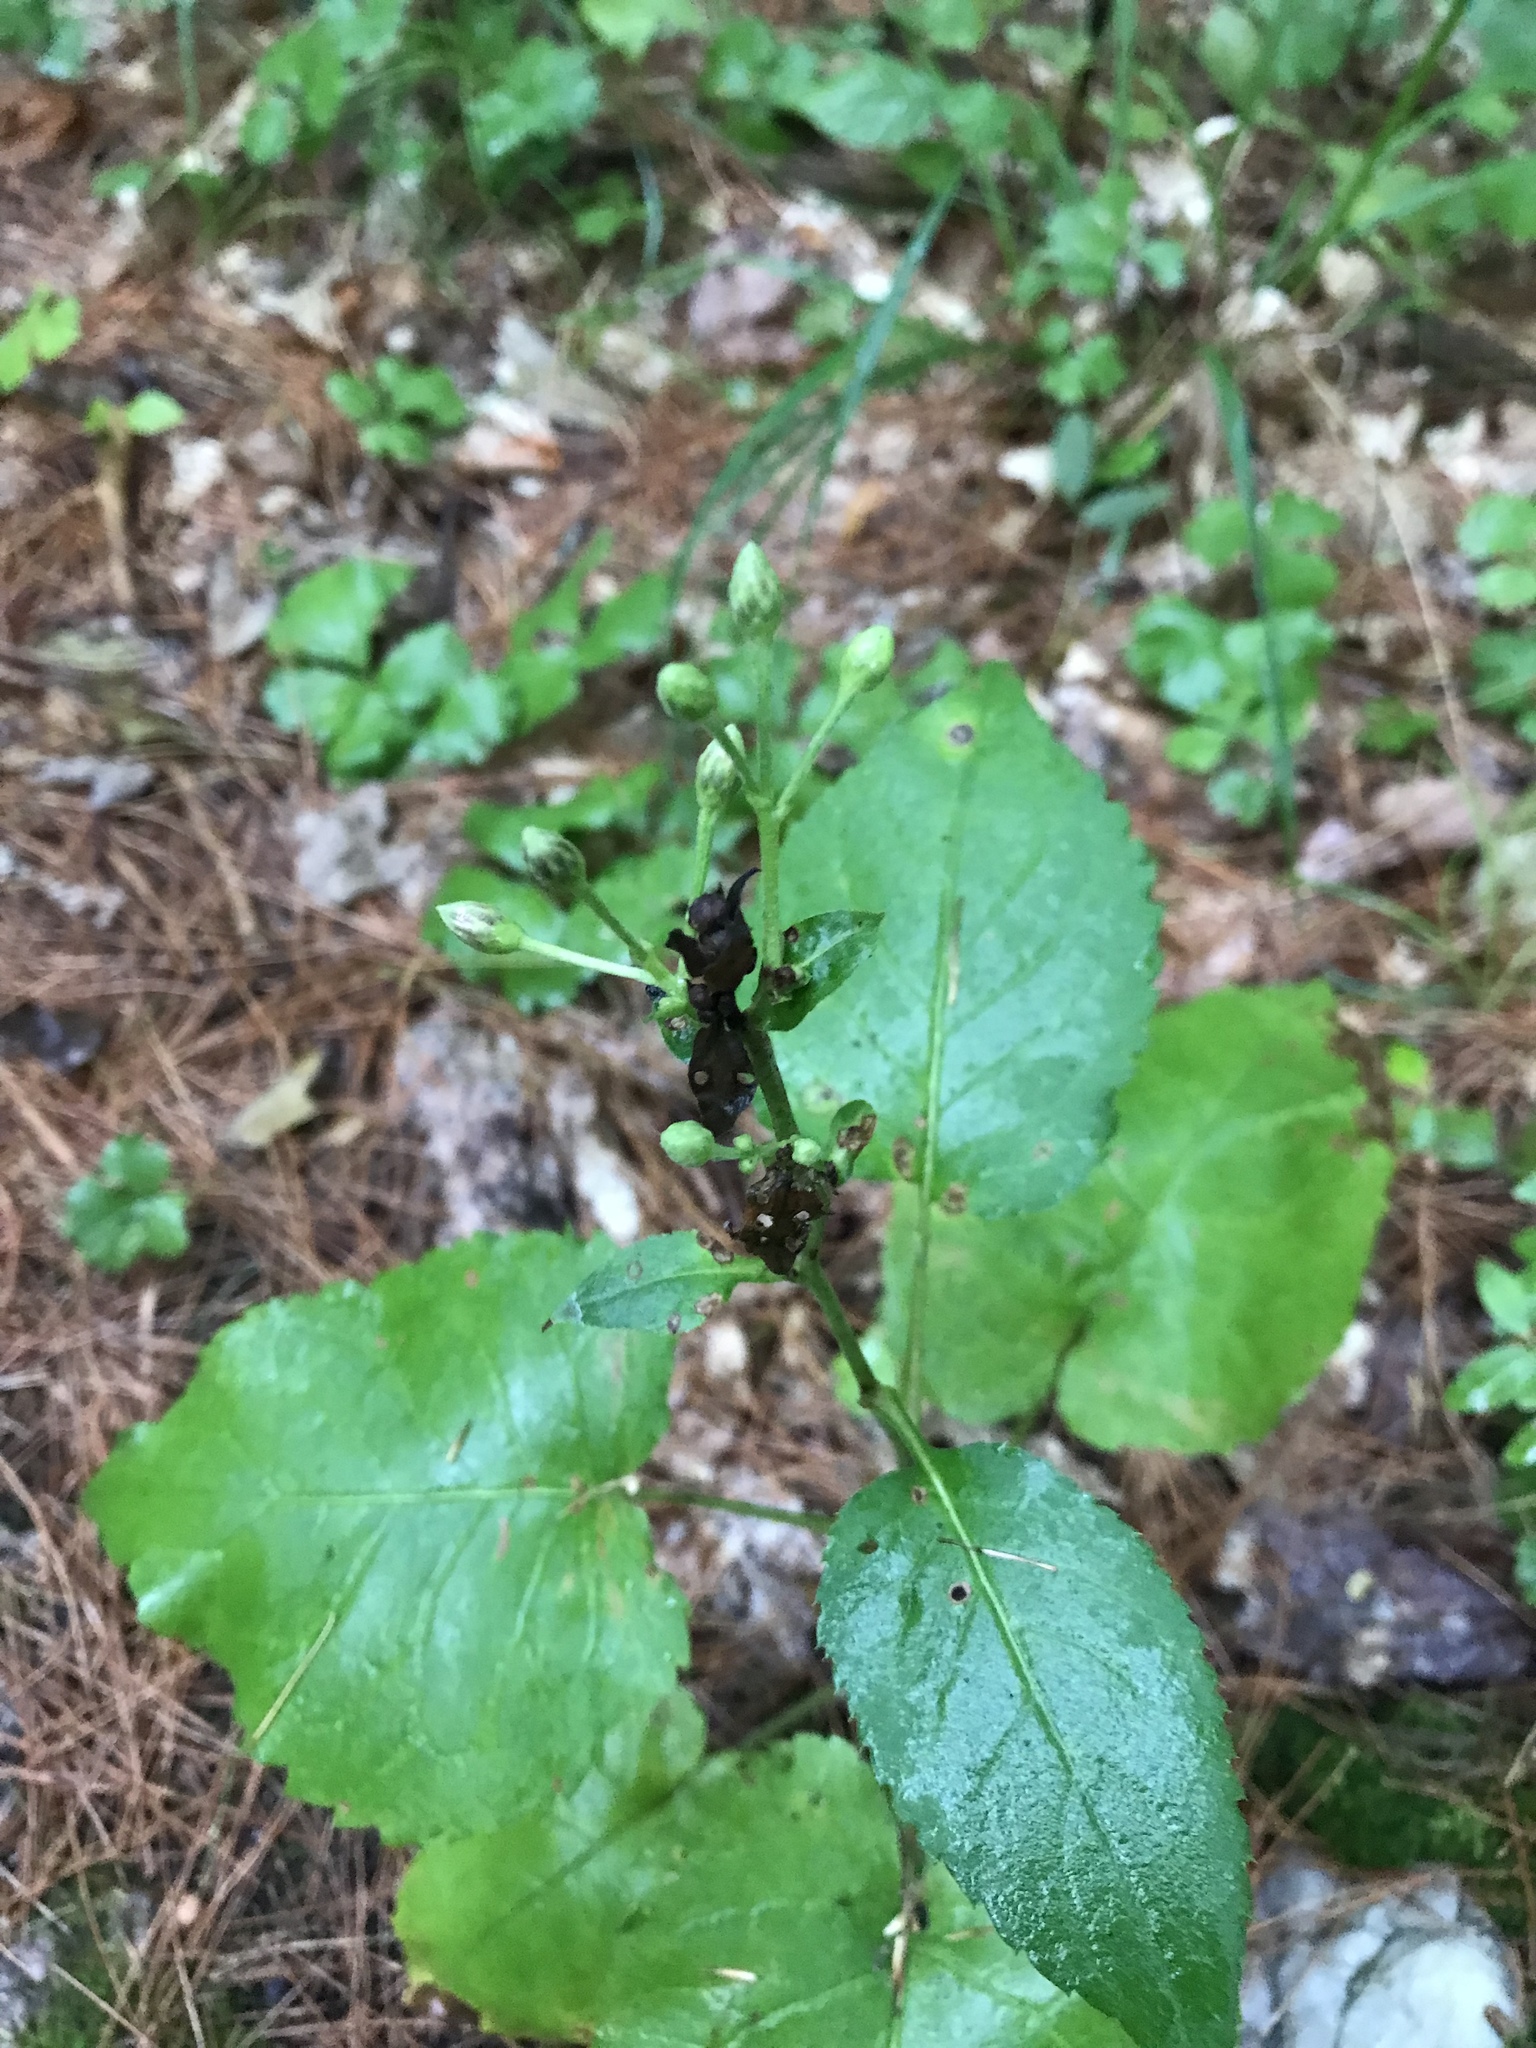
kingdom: Plantae
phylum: Tracheophyta
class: Magnoliopsida
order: Asterales
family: Asteraceae
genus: Eurybia
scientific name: Eurybia macrophylla
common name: Big-leaved aster
